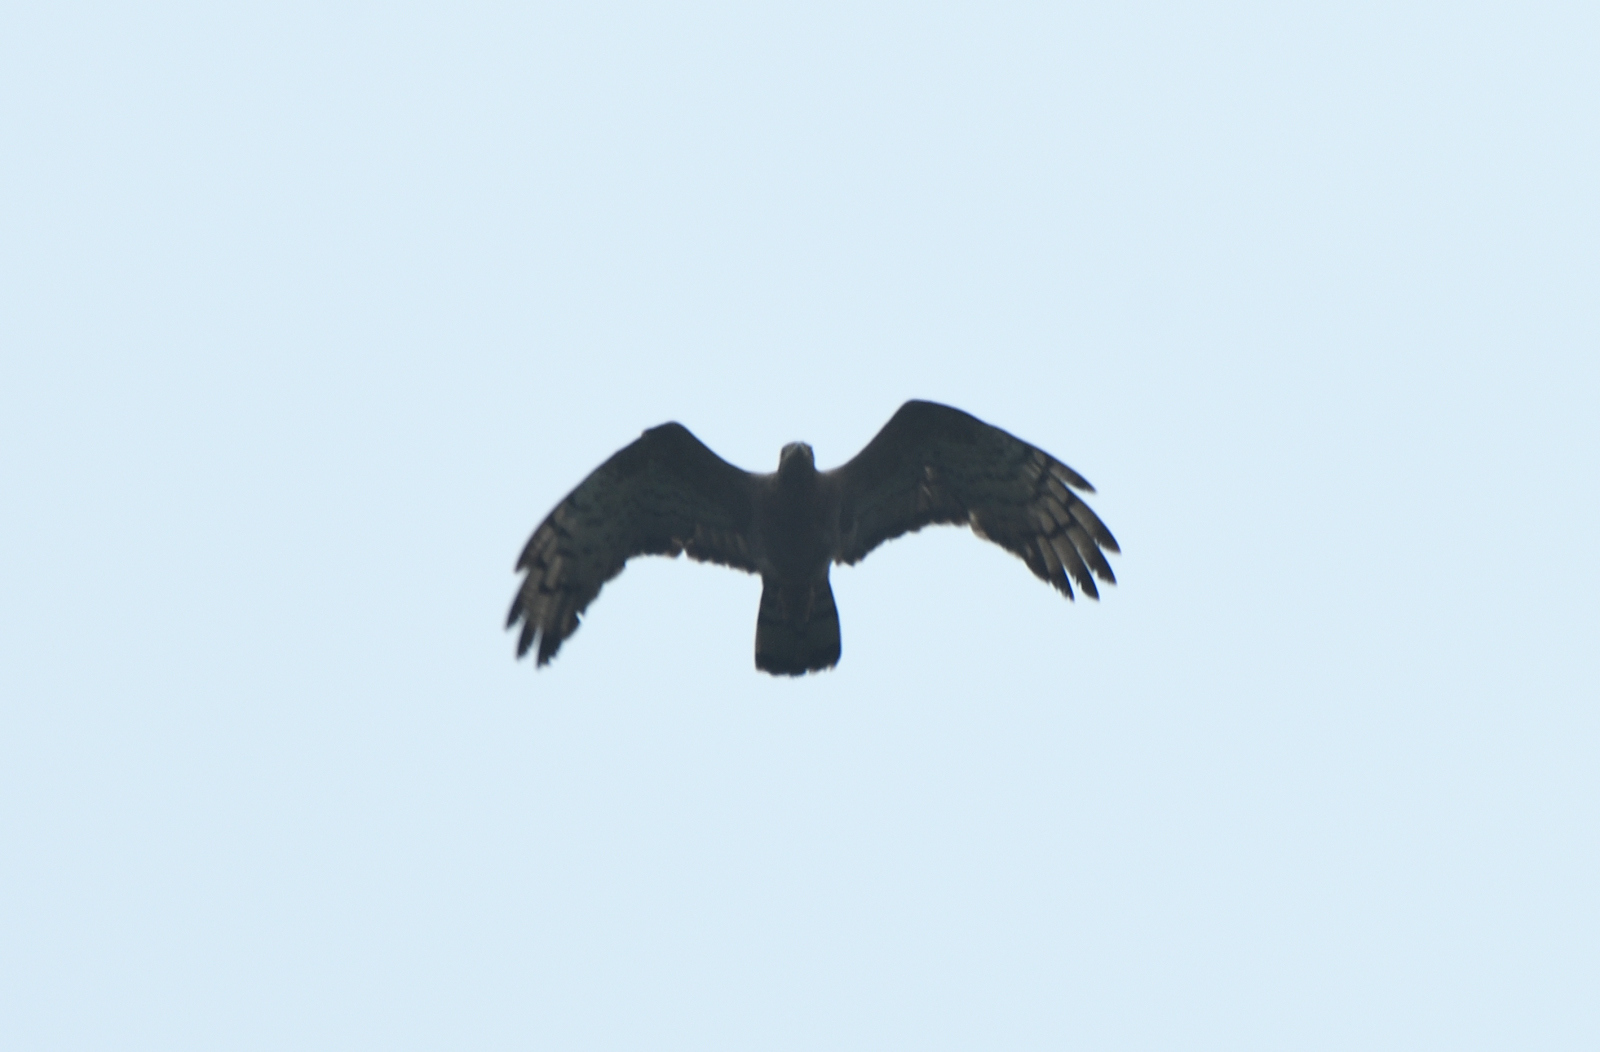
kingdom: Animalia
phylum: Chordata
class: Aves
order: Accipitriformes
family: Accipitridae
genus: Pernis
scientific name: Pernis ptilorhynchus
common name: Crested honey buzzard
